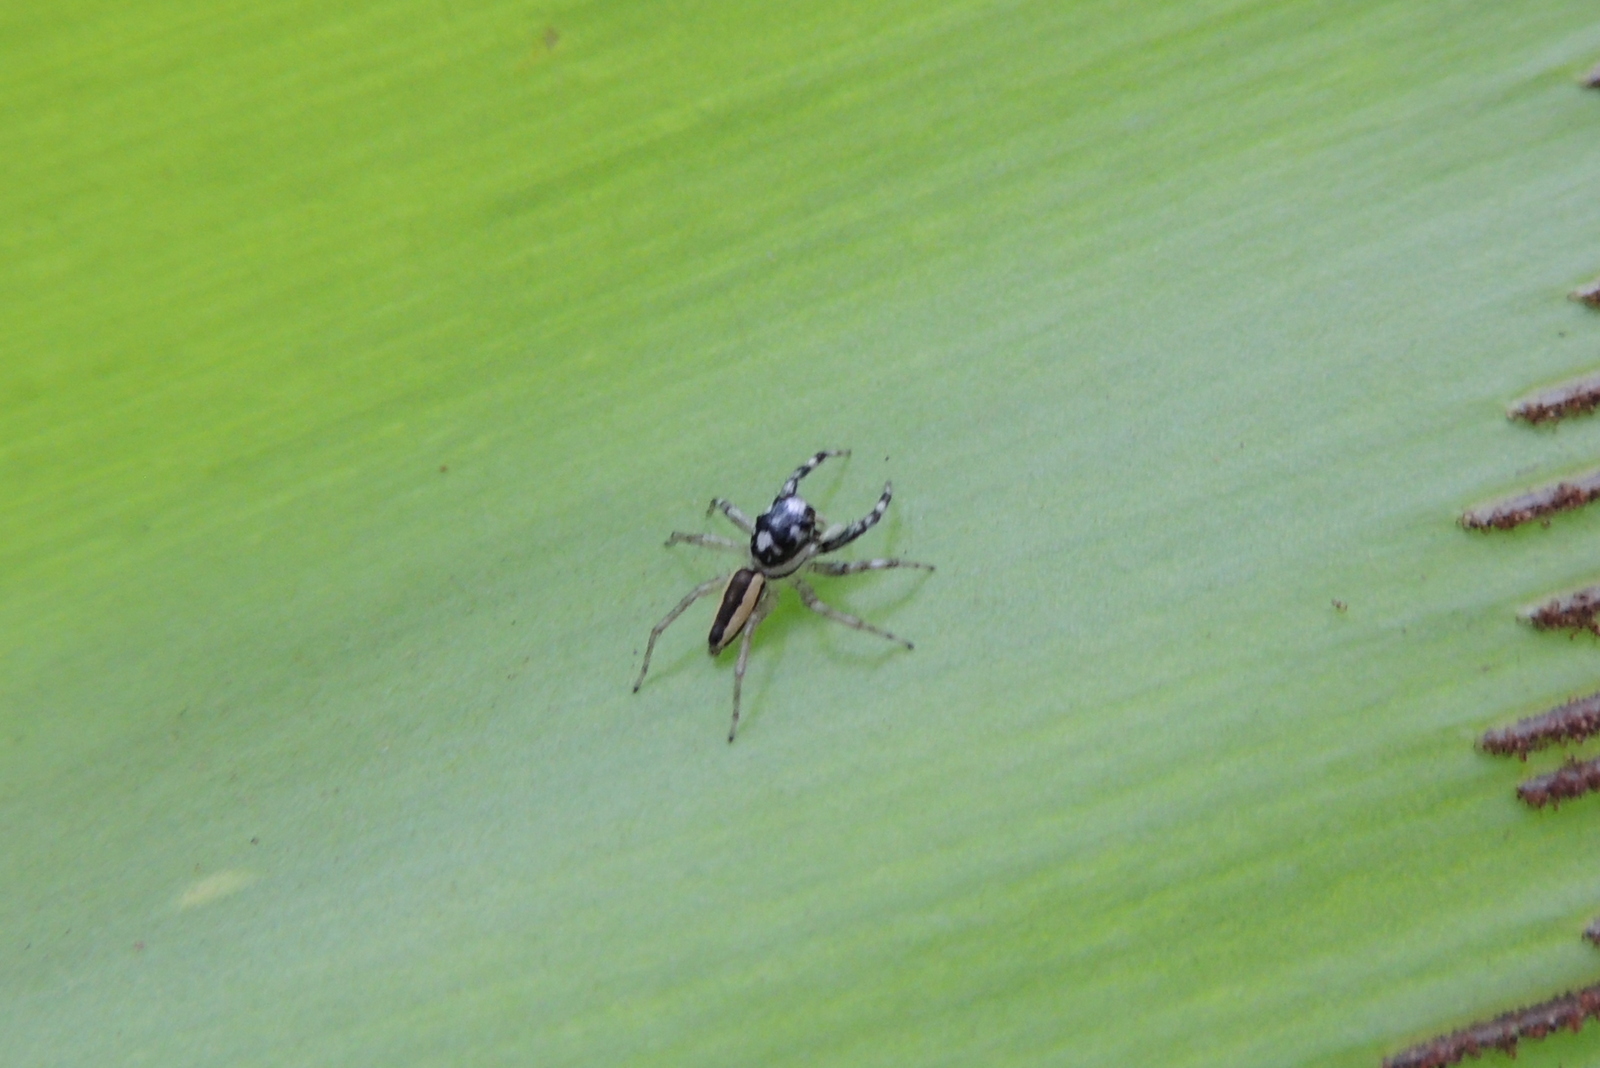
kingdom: Animalia
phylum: Arthropoda
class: Arachnida
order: Araneae
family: Salticidae
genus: Phintelloides
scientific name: Phintelloides versicolor
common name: Jumping spider
